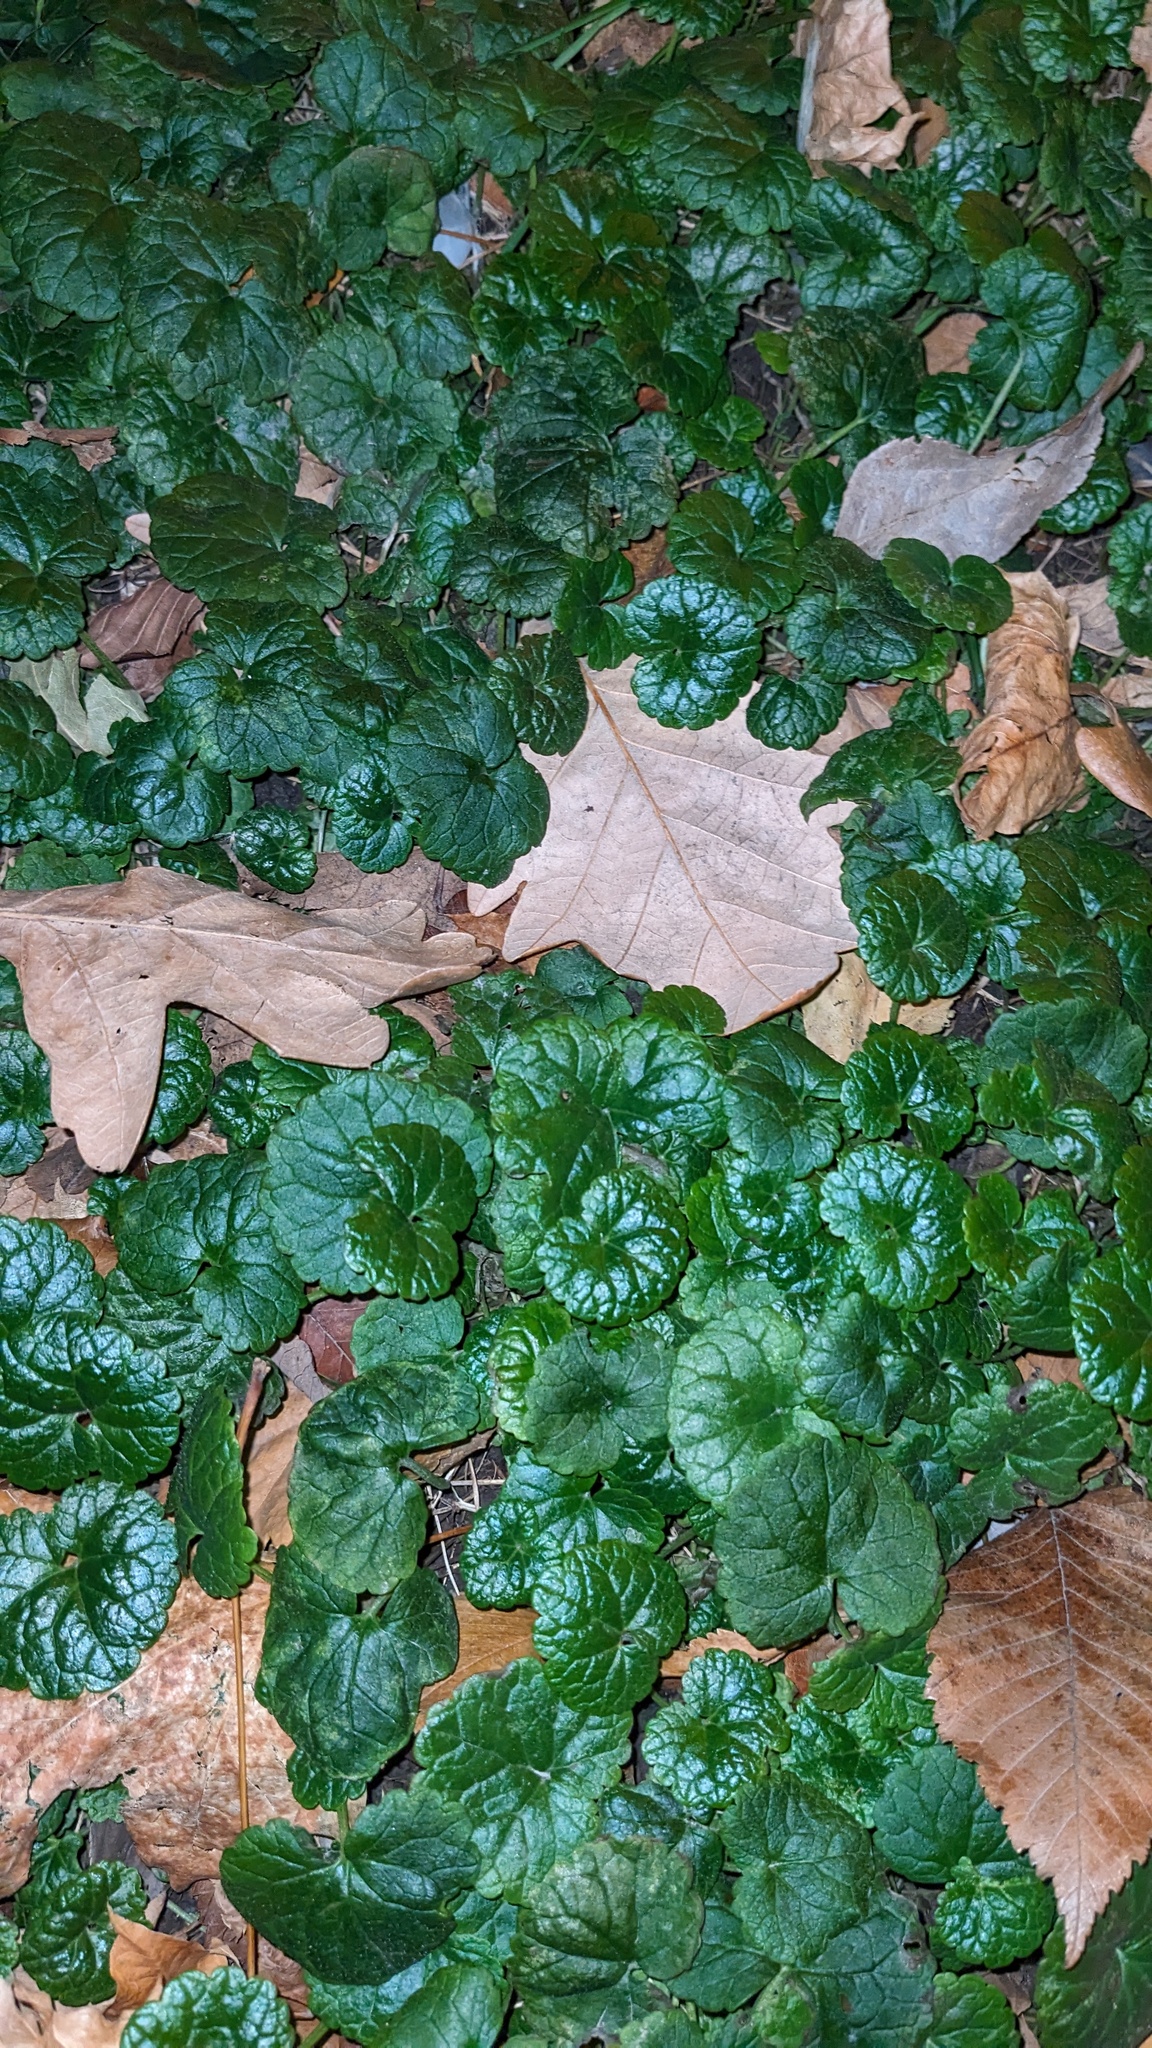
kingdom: Plantae
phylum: Tracheophyta
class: Magnoliopsida
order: Lamiales
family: Lamiaceae
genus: Glechoma
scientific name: Glechoma hederacea
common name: Ground ivy
